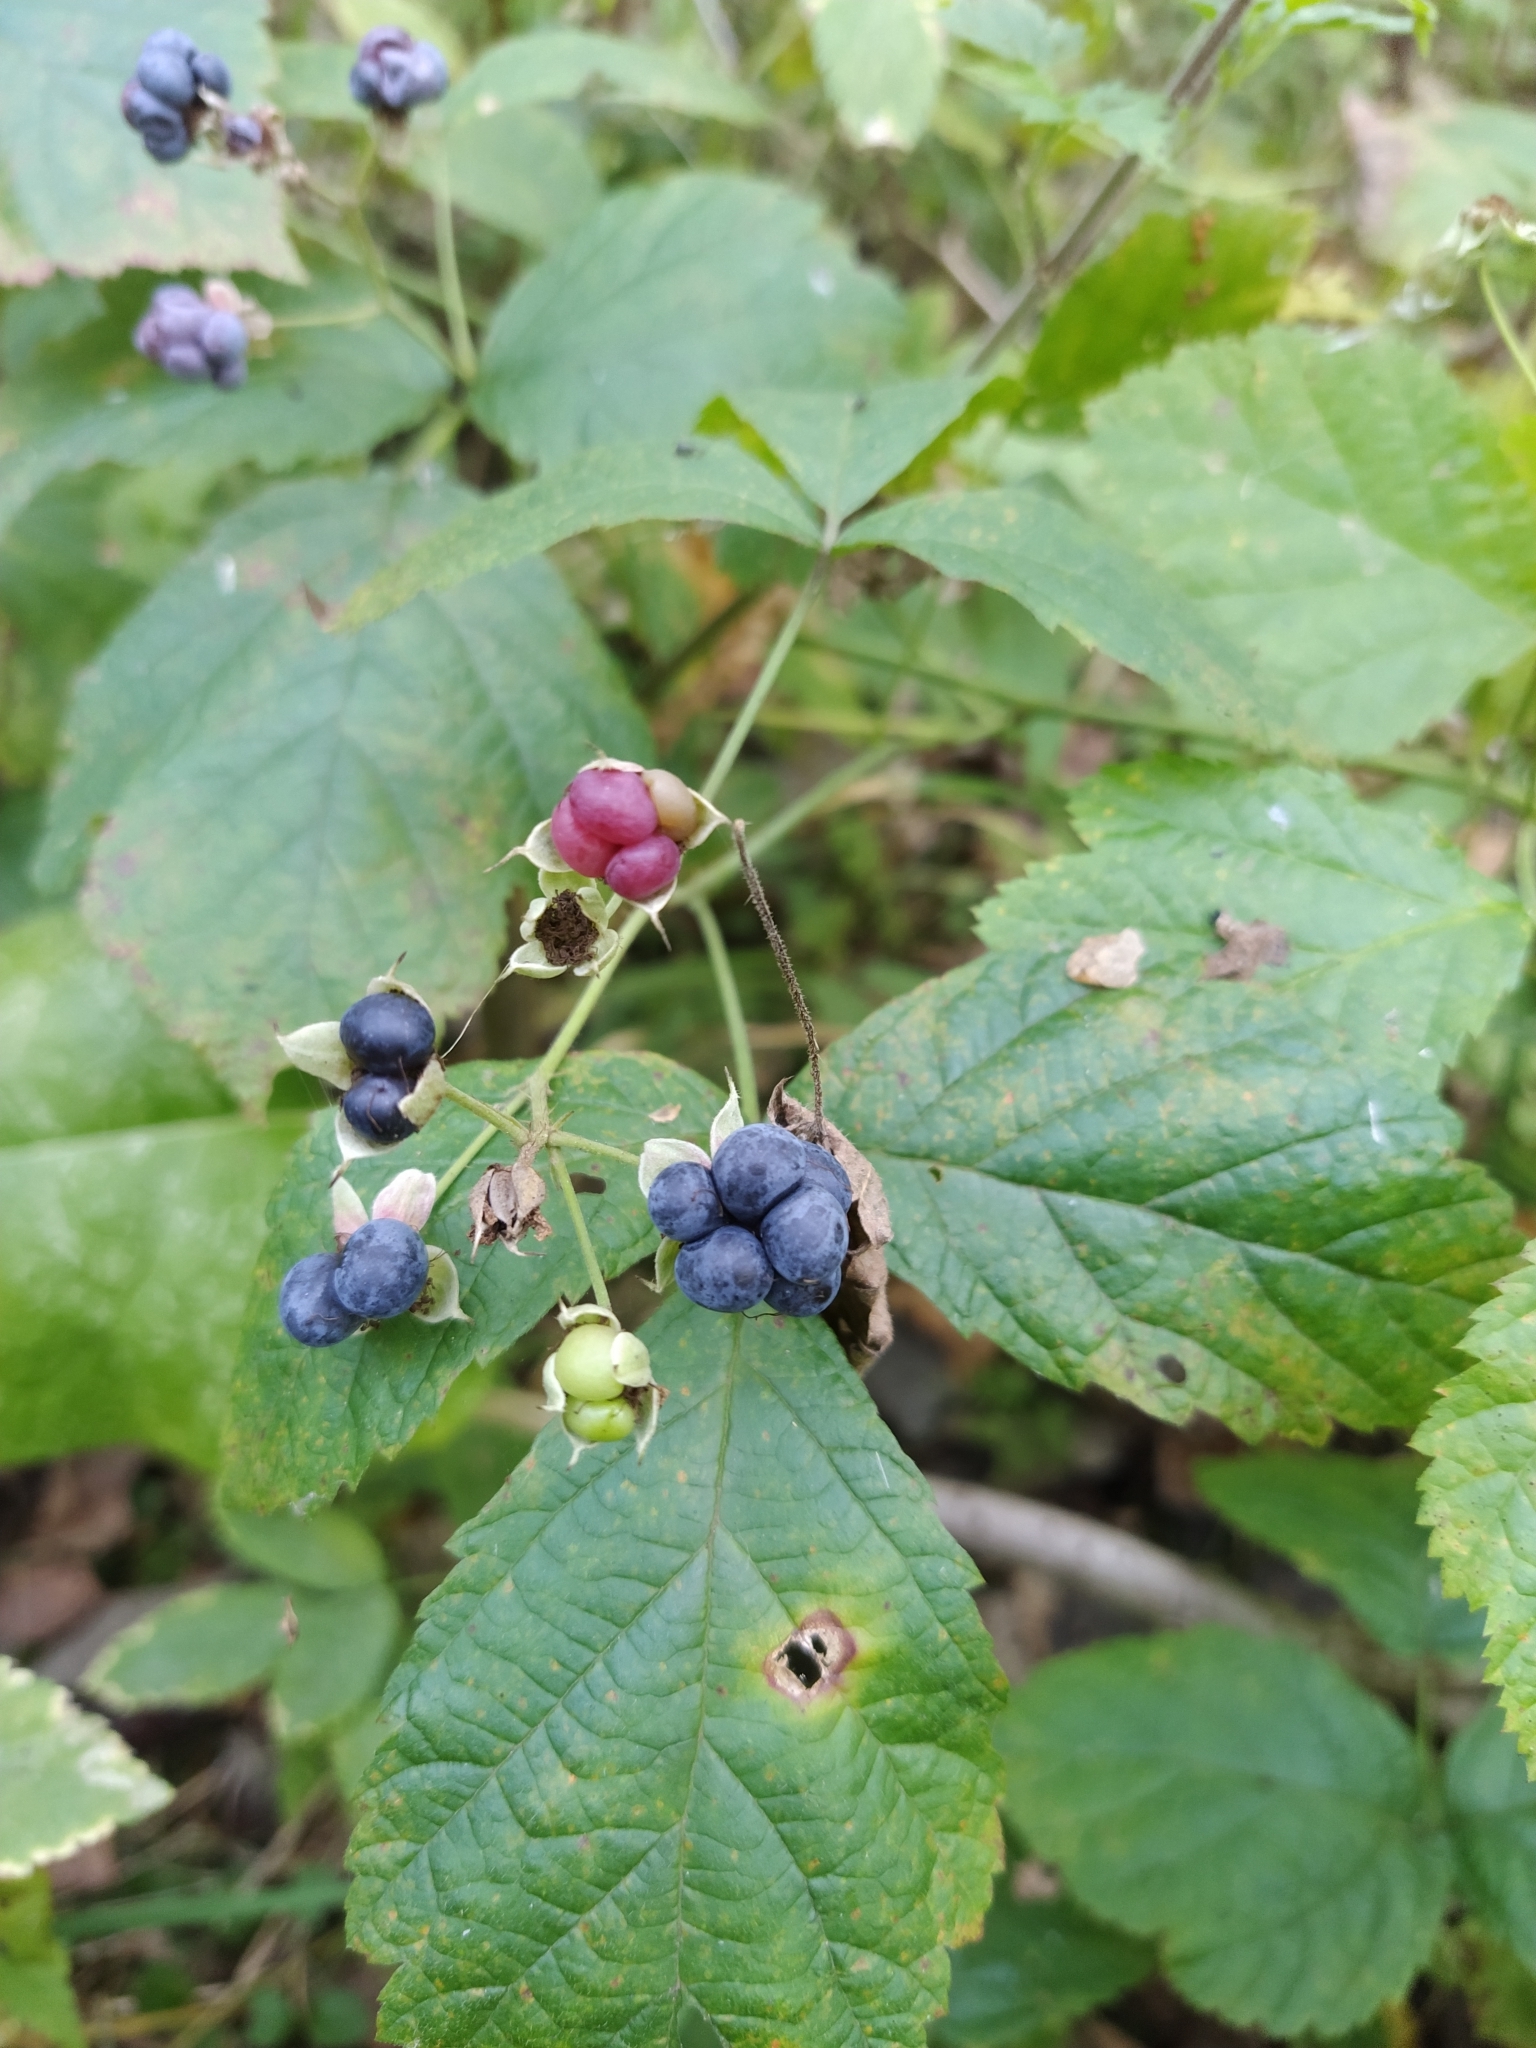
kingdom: Plantae
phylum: Tracheophyta
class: Magnoliopsida
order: Rosales
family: Rosaceae
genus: Rubus
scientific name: Rubus caesius
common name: Dewberry
